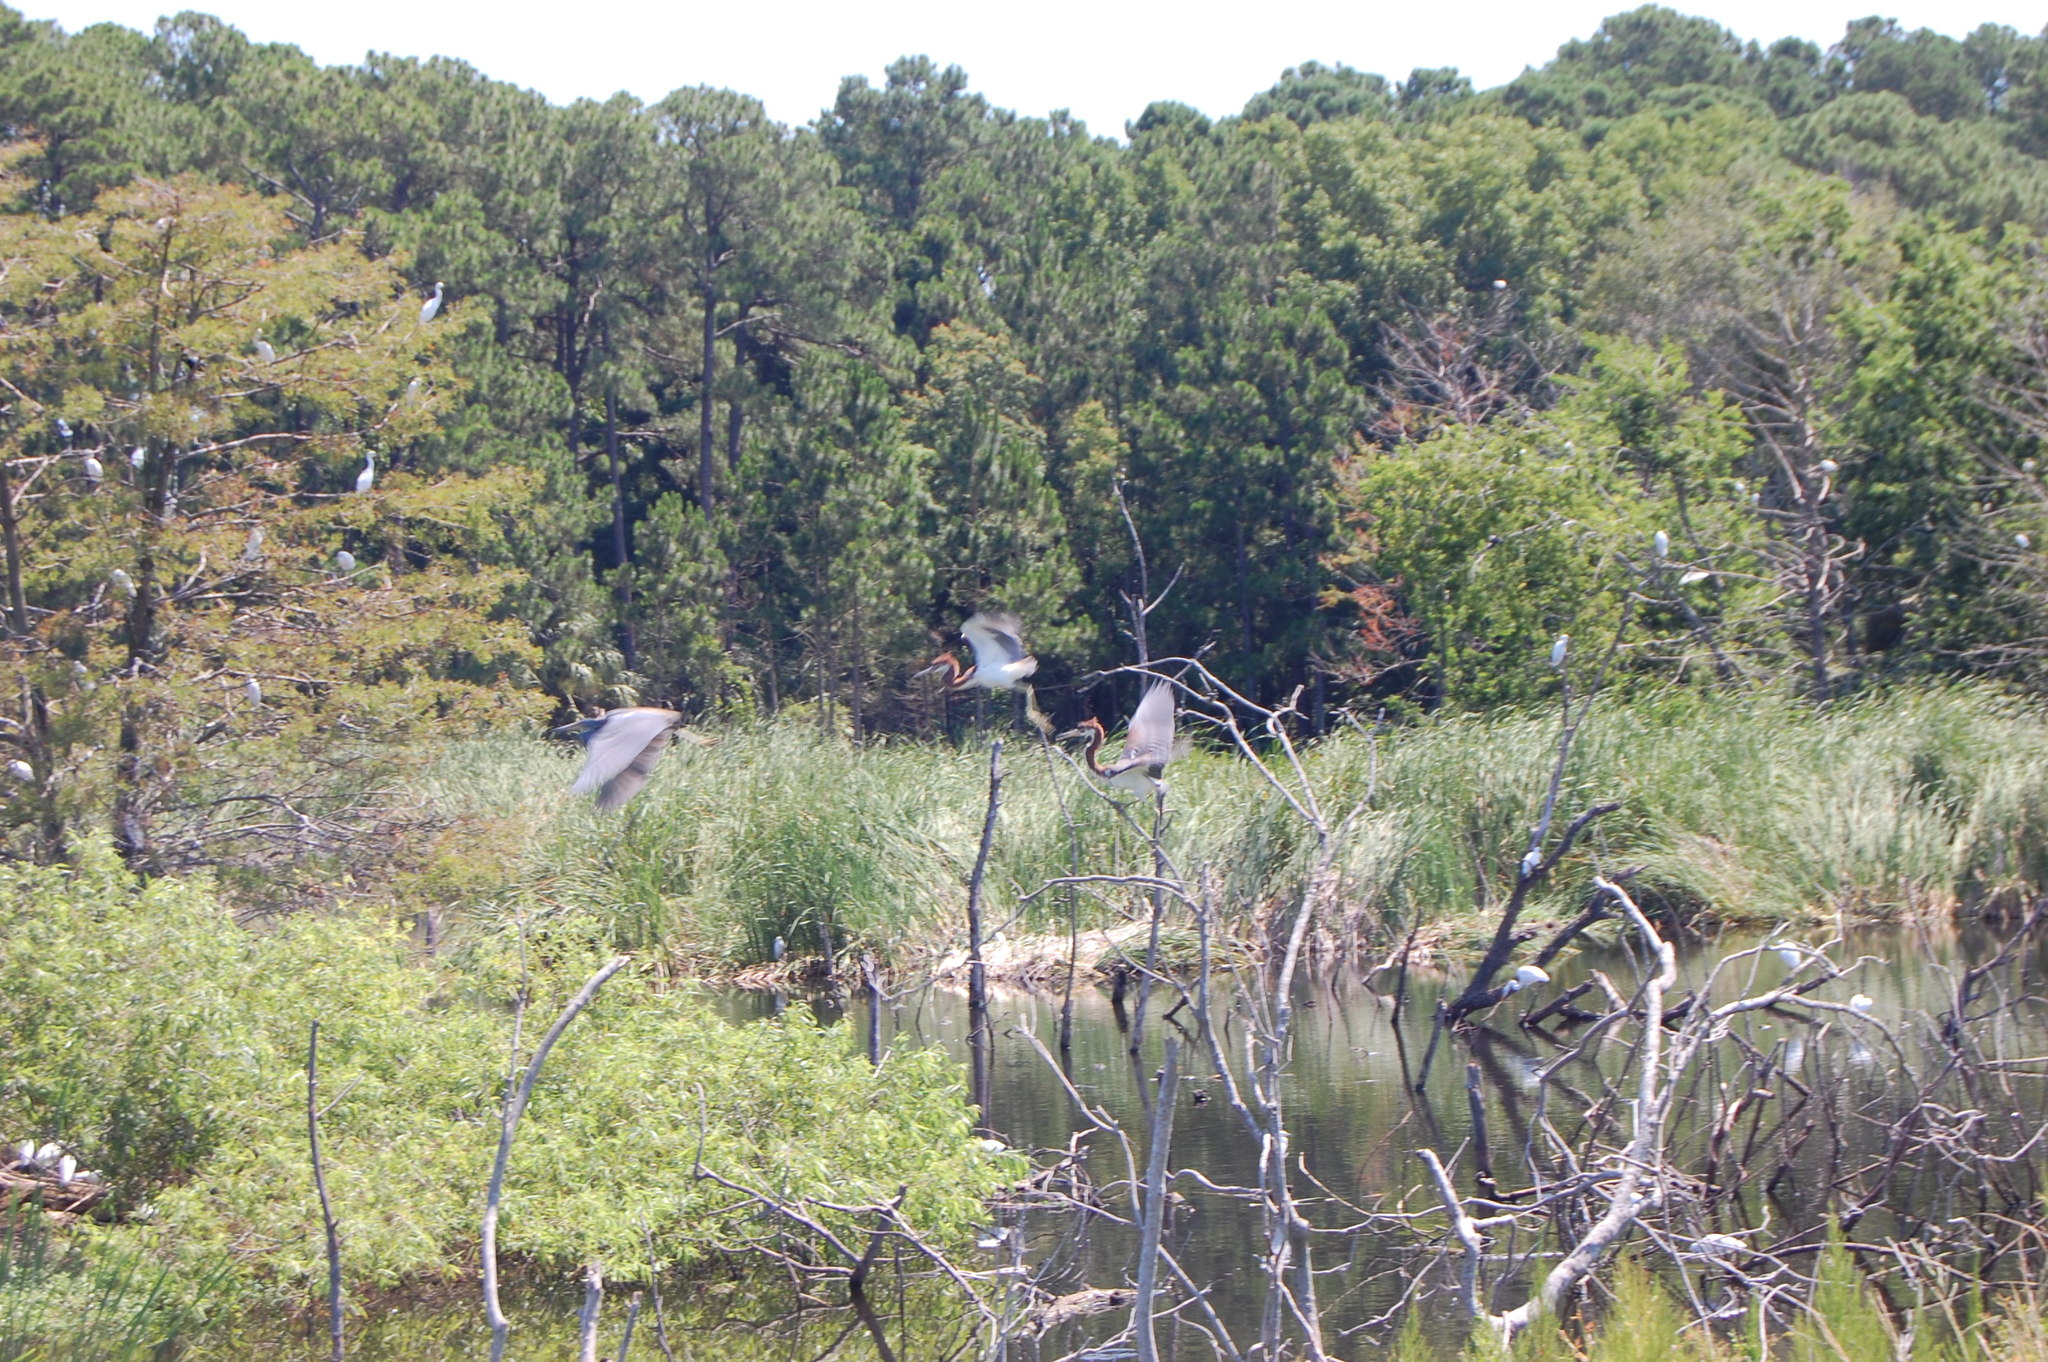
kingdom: Animalia
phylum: Chordata
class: Aves
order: Pelecaniformes
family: Ardeidae
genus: Egretta
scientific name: Egretta tricolor
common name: Tricolored heron
